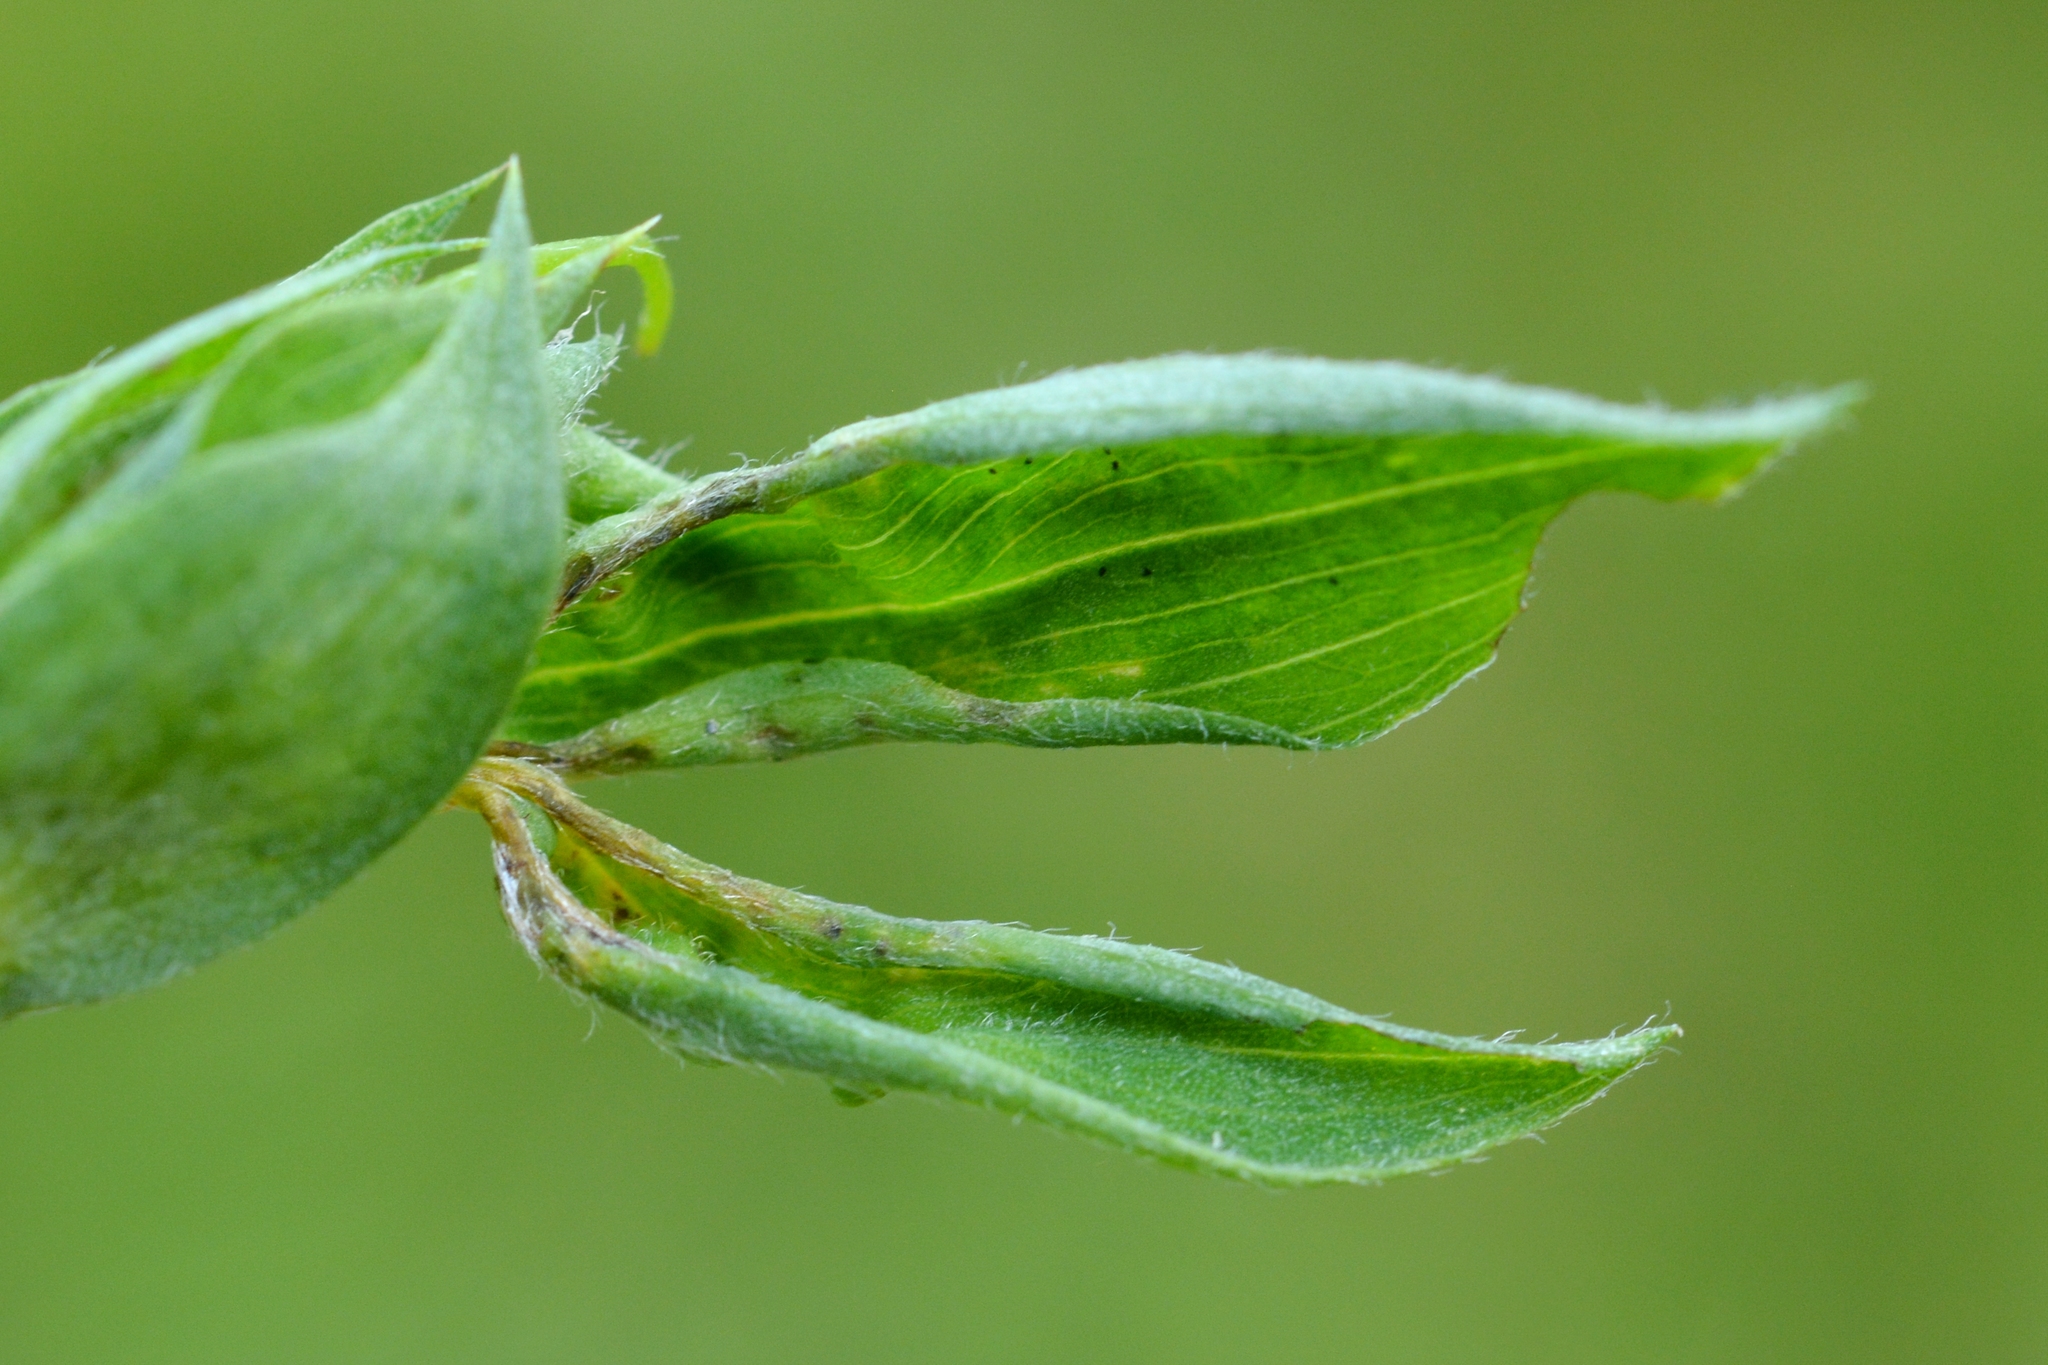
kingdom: Animalia
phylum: Arthropoda
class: Insecta
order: Diptera
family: Cecidomyiidae
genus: Jaapiella
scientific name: Jaapiella volvens
